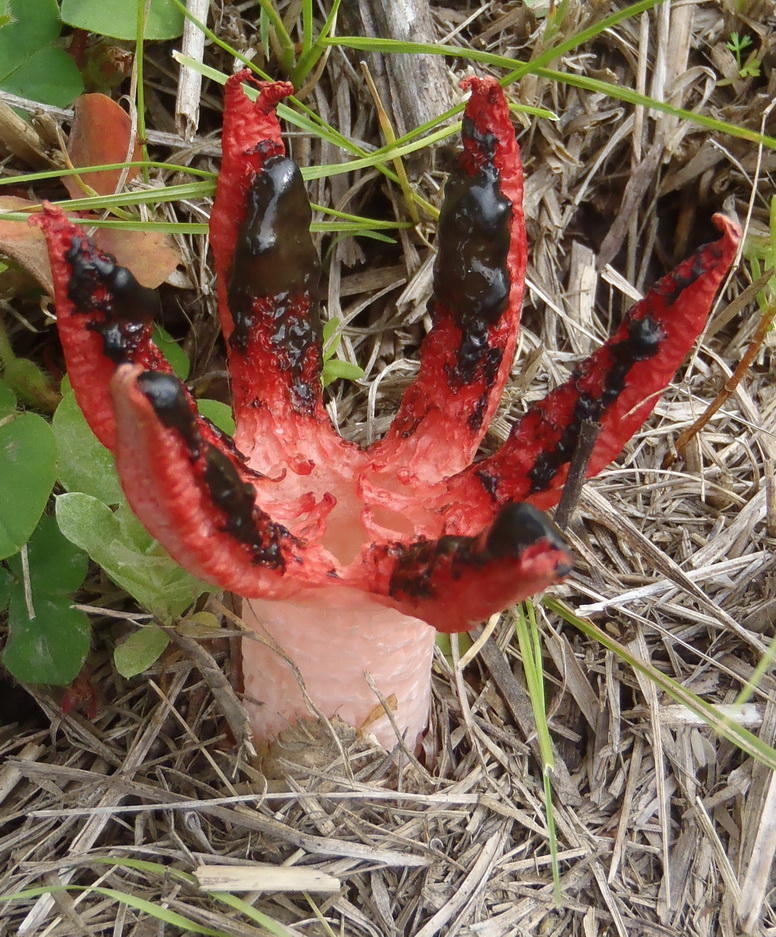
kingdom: Fungi
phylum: Basidiomycota
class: Agaricomycetes
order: Phallales
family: Phallaceae
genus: Clathrus
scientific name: Clathrus archeri
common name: Devil's fingers
